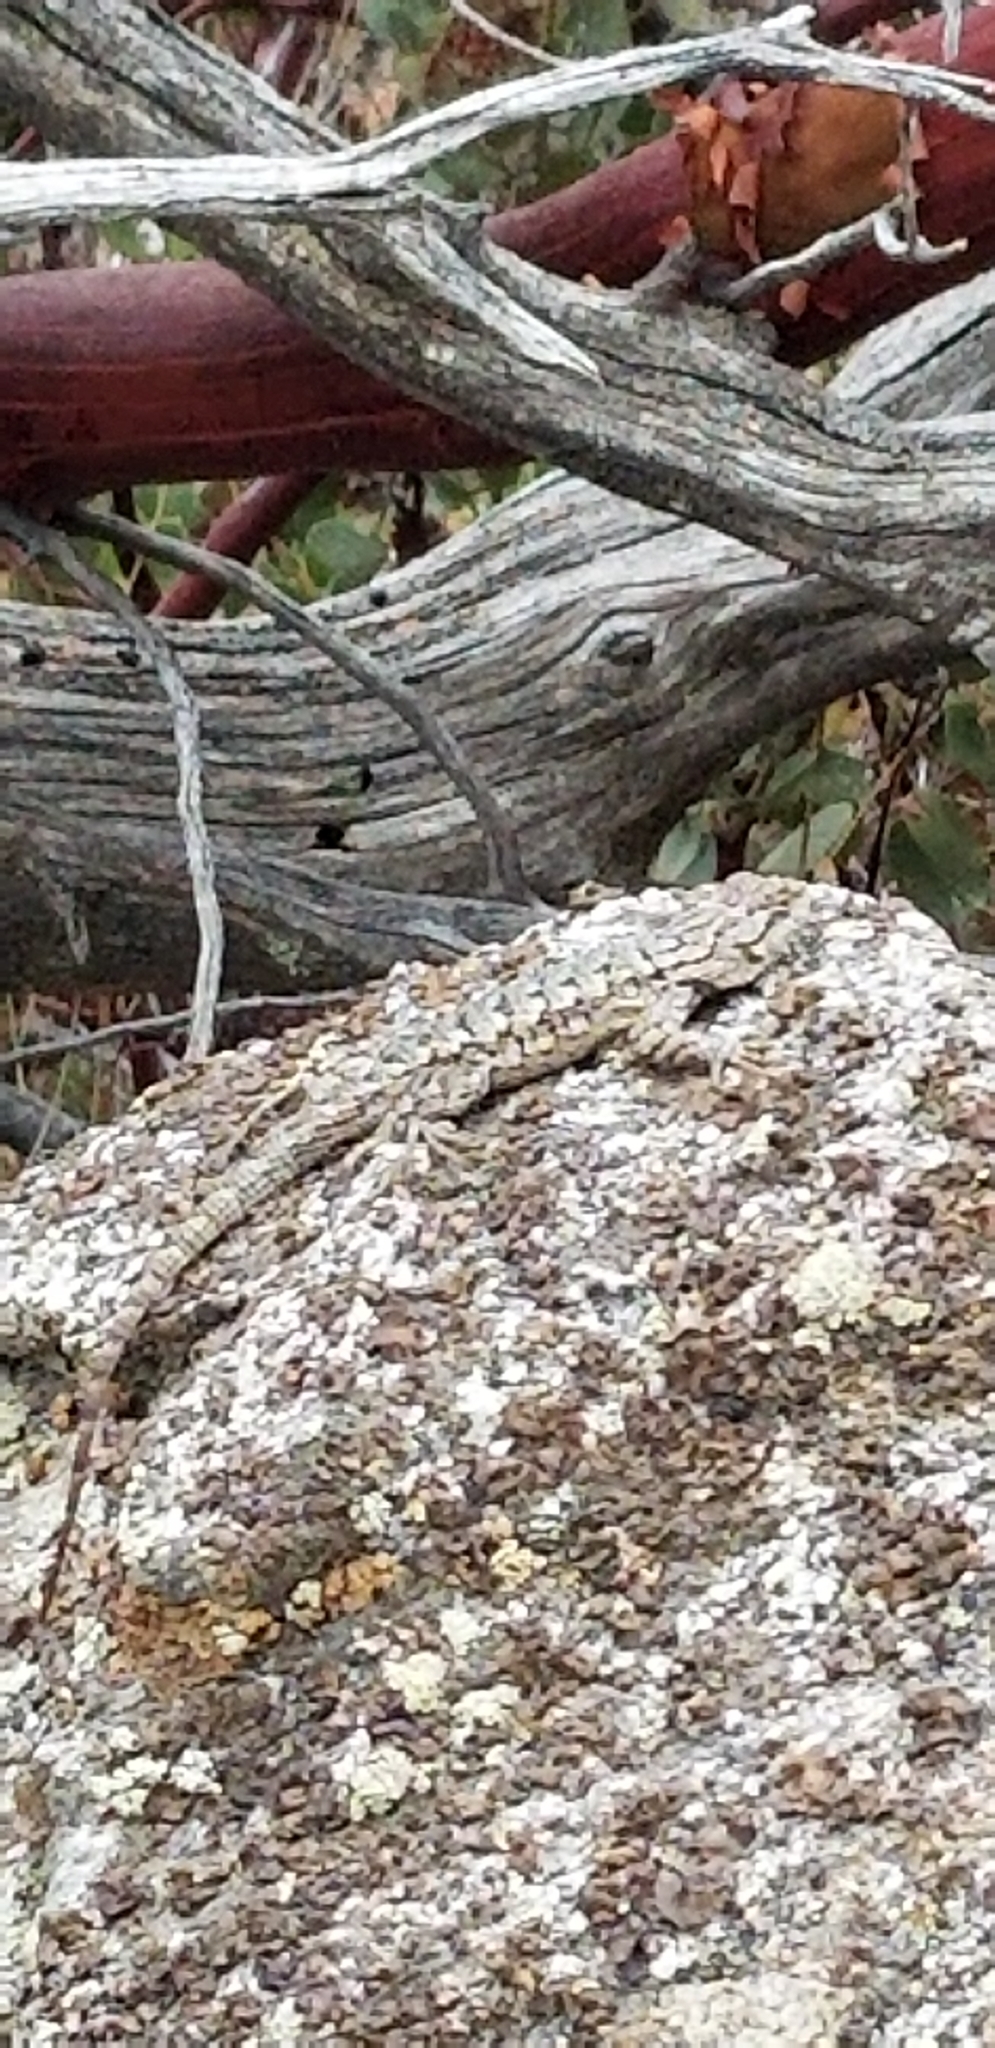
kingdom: Animalia
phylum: Chordata
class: Squamata
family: Phrynosomatidae
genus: Sceloporus
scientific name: Sceloporus occidentalis
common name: Western fence lizard
